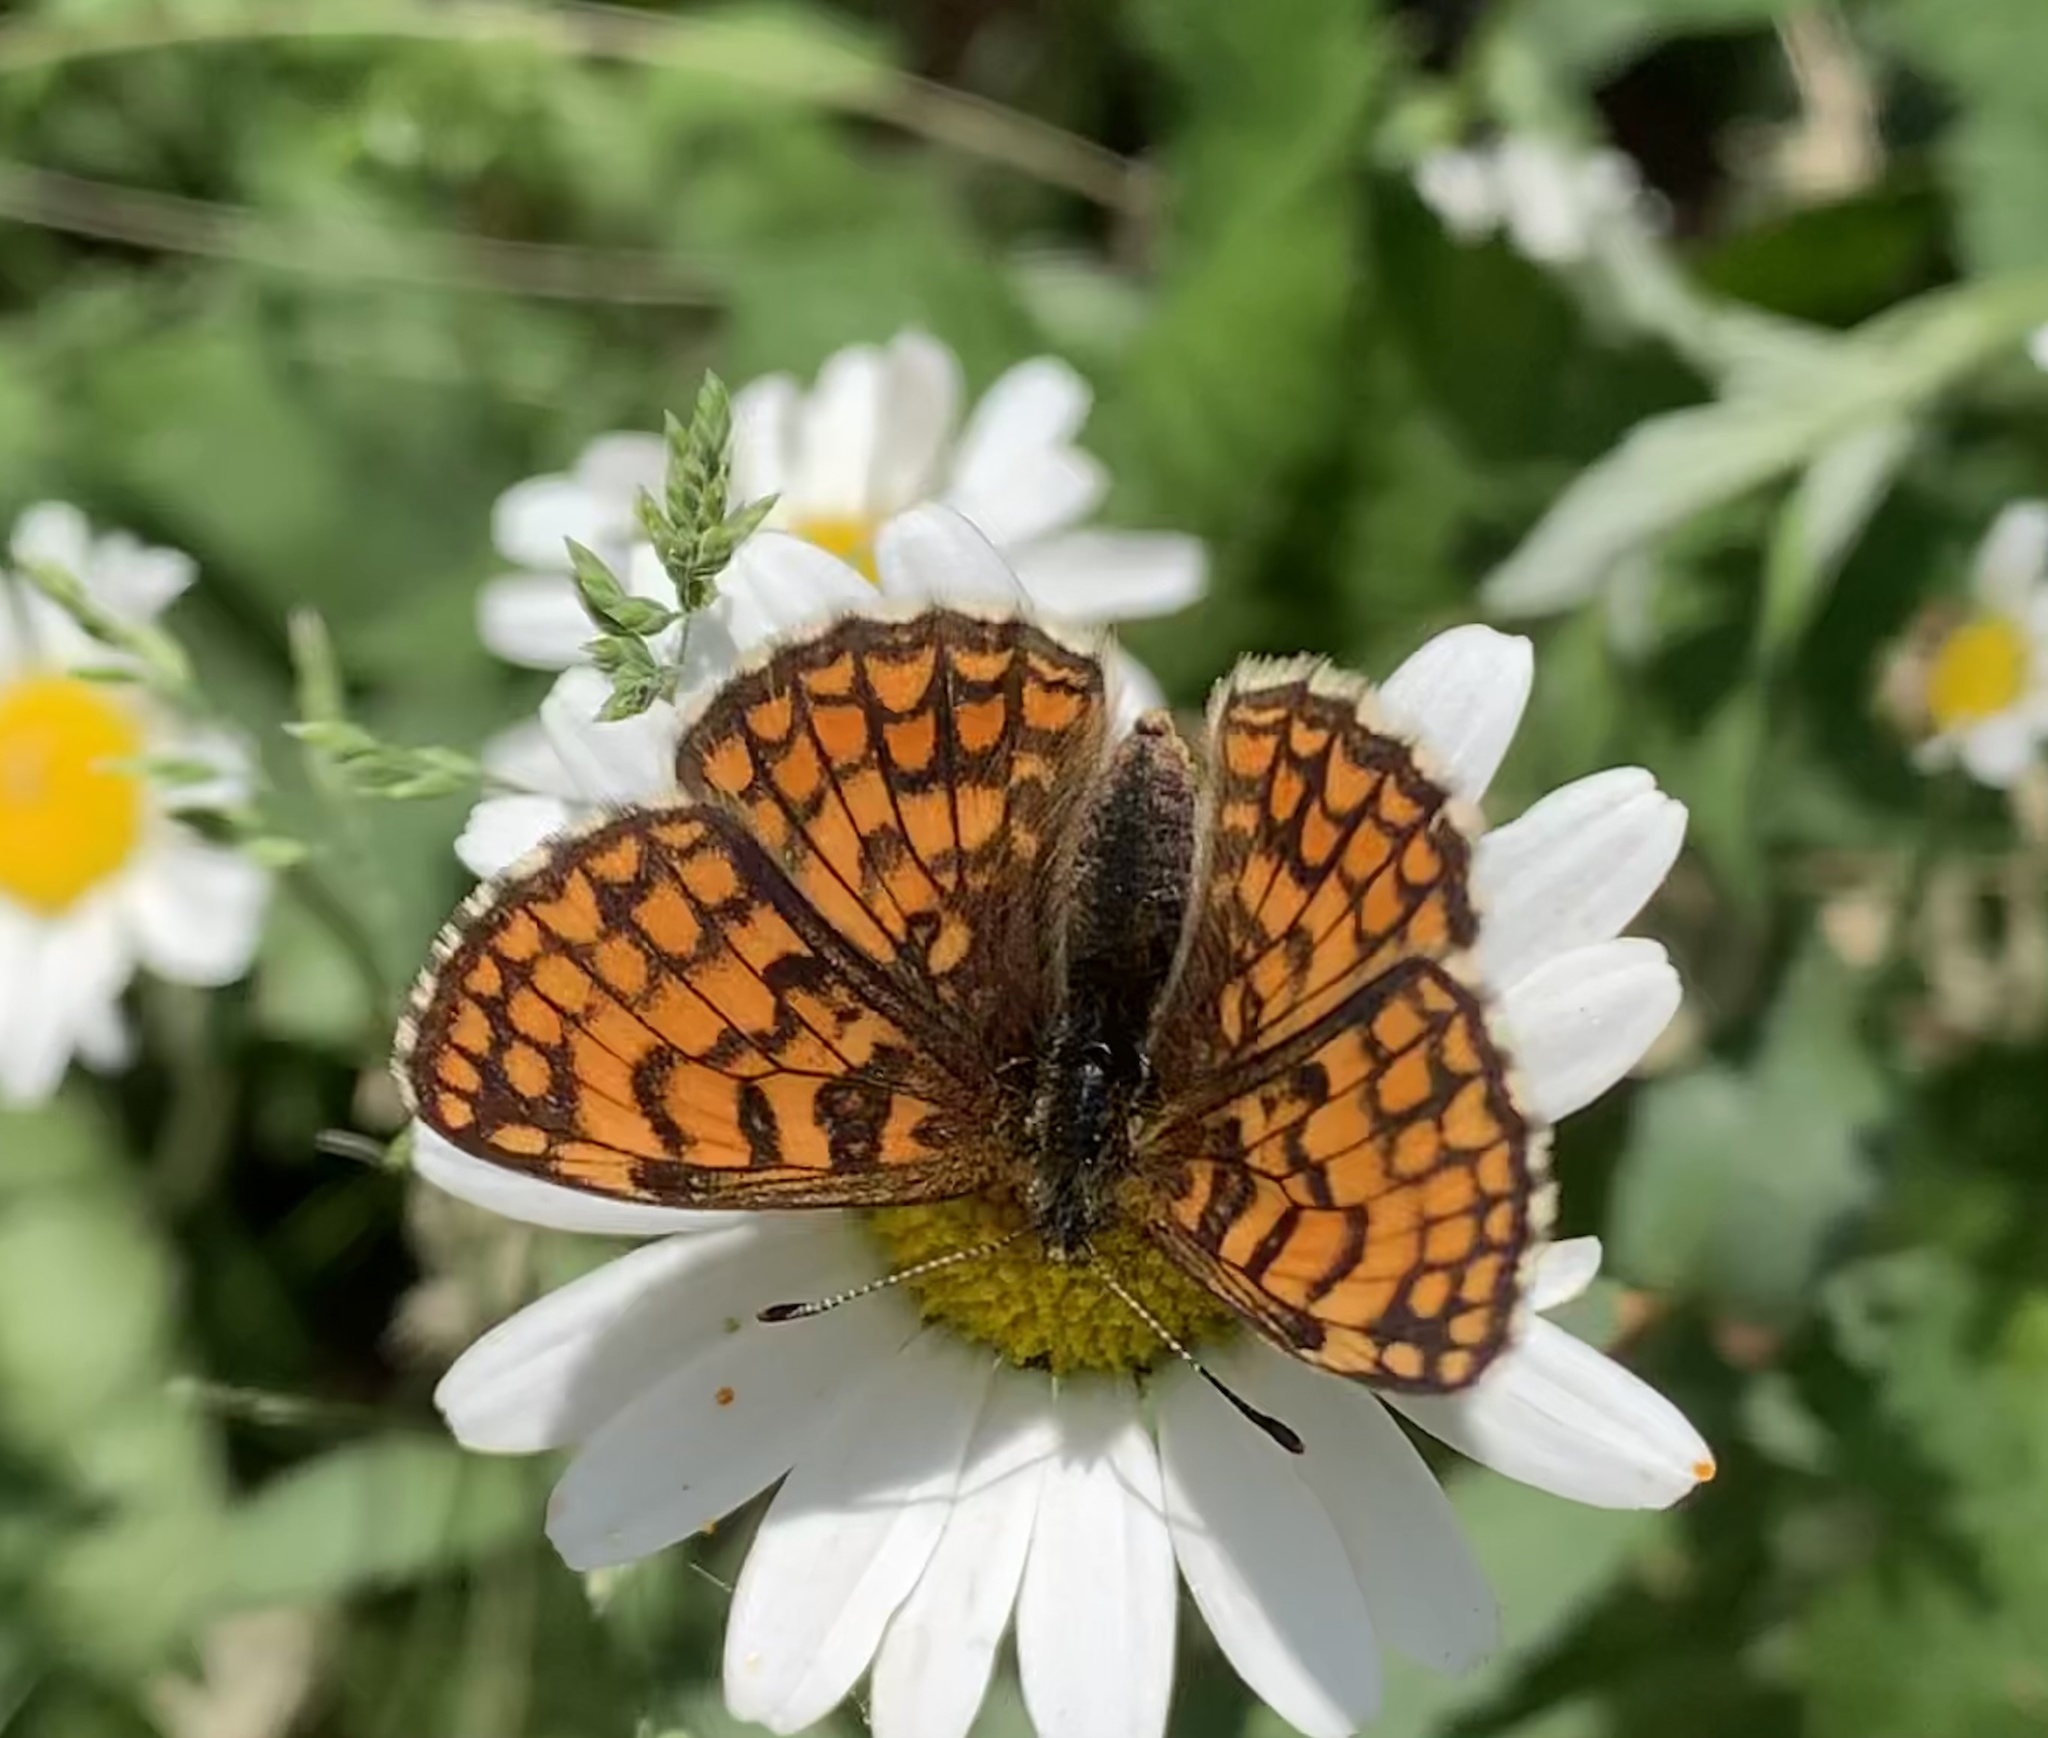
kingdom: Animalia
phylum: Arthropoda
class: Insecta
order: Lepidoptera
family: Nymphalidae
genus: Mellicta
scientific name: Mellicta athalia
